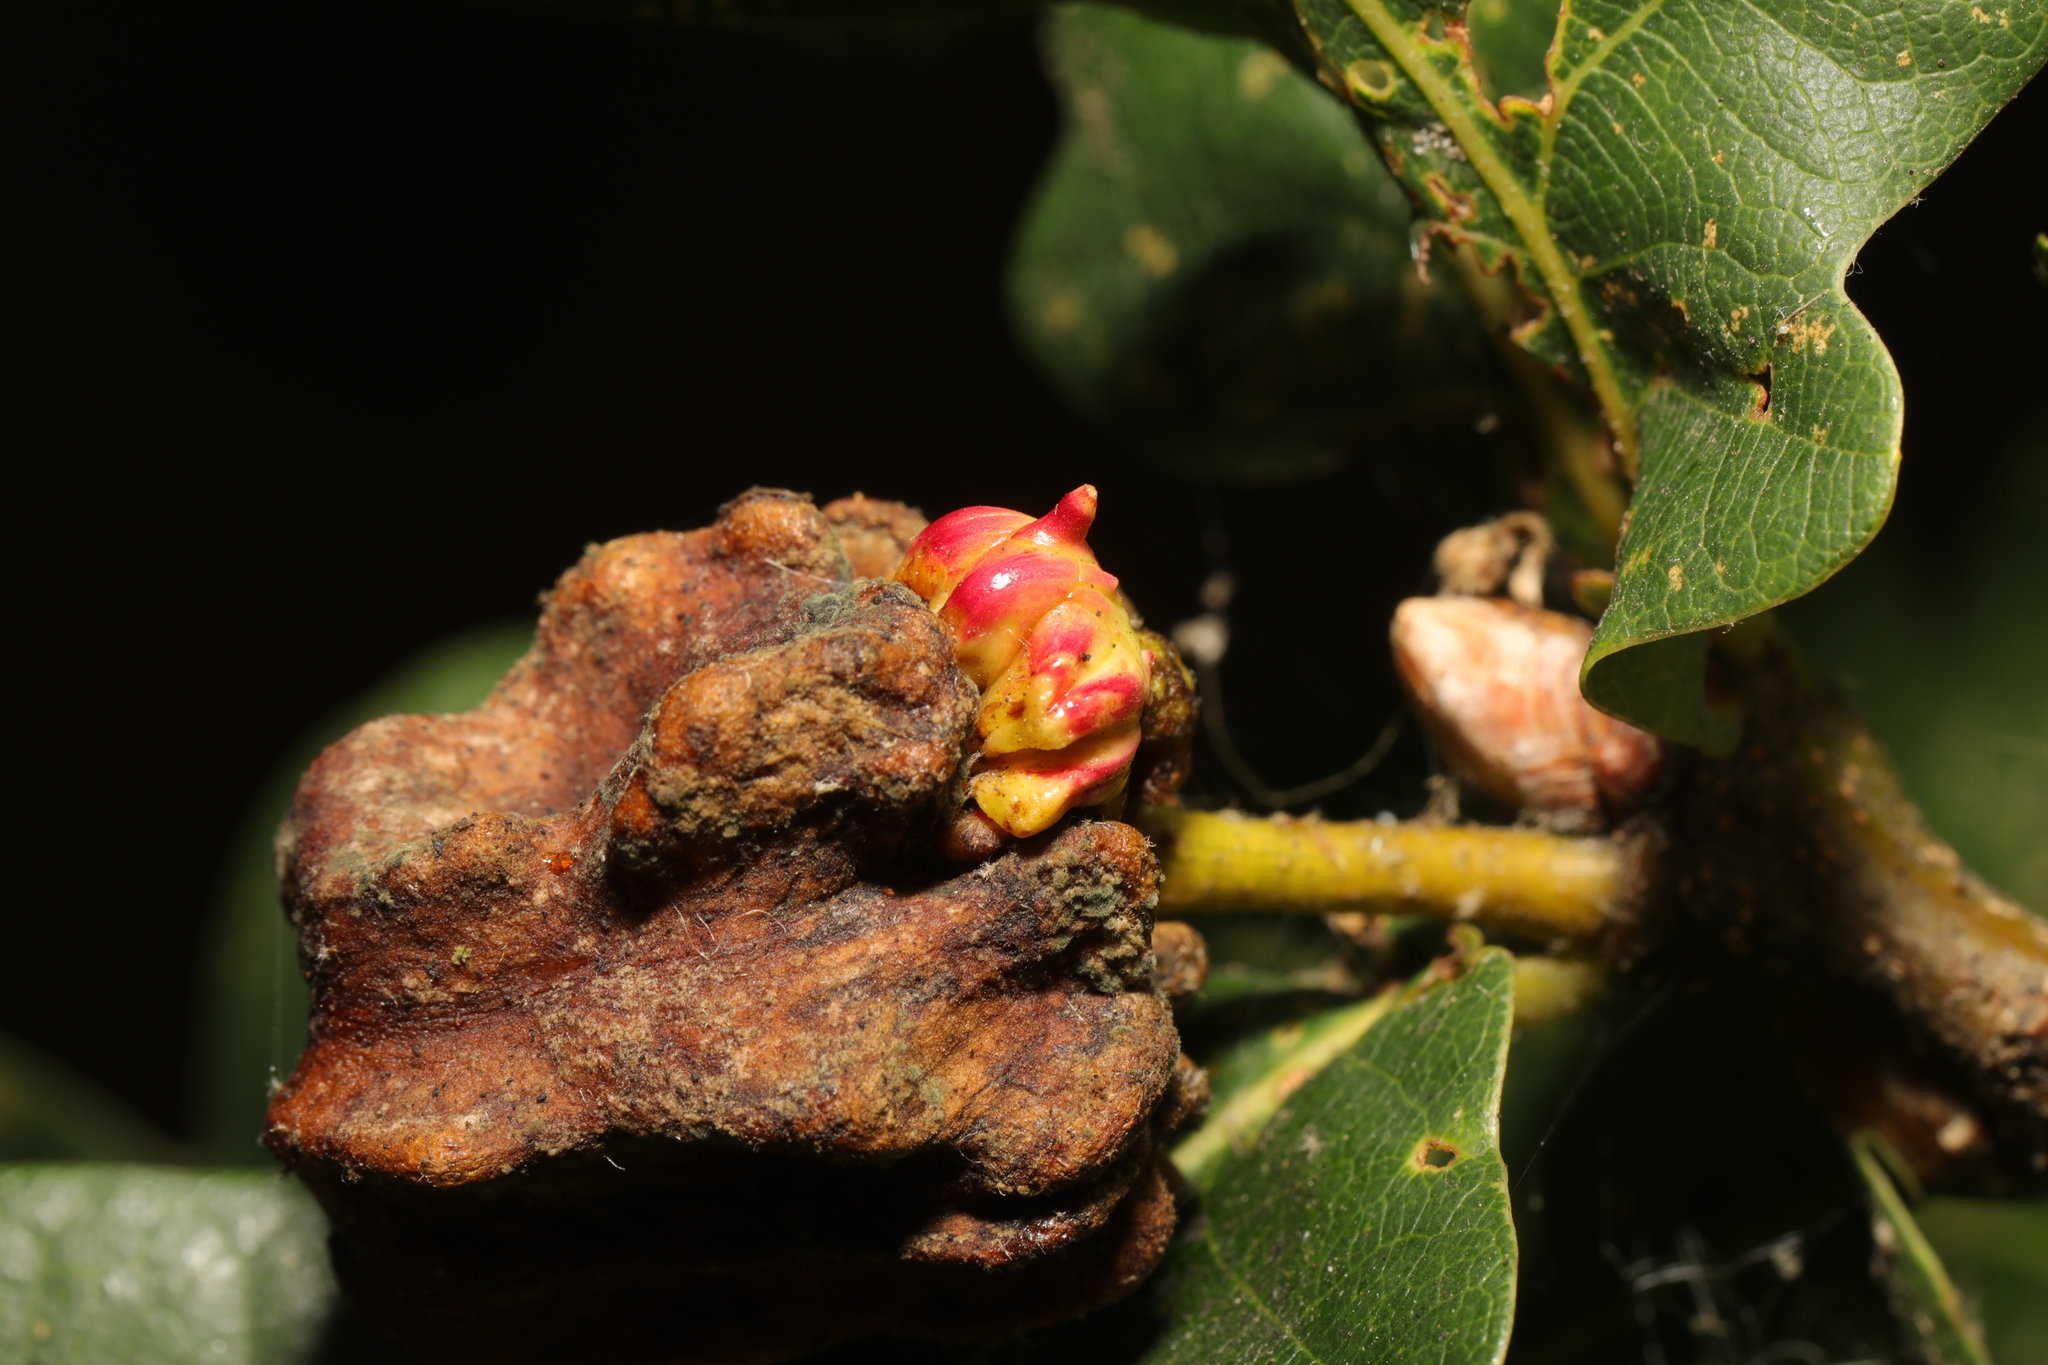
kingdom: Animalia
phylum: Arthropoda
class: Insecta
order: Hymenoptera
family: Cynipidae
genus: Andricus
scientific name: Andricus quercuscalicis
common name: Knopper gall
